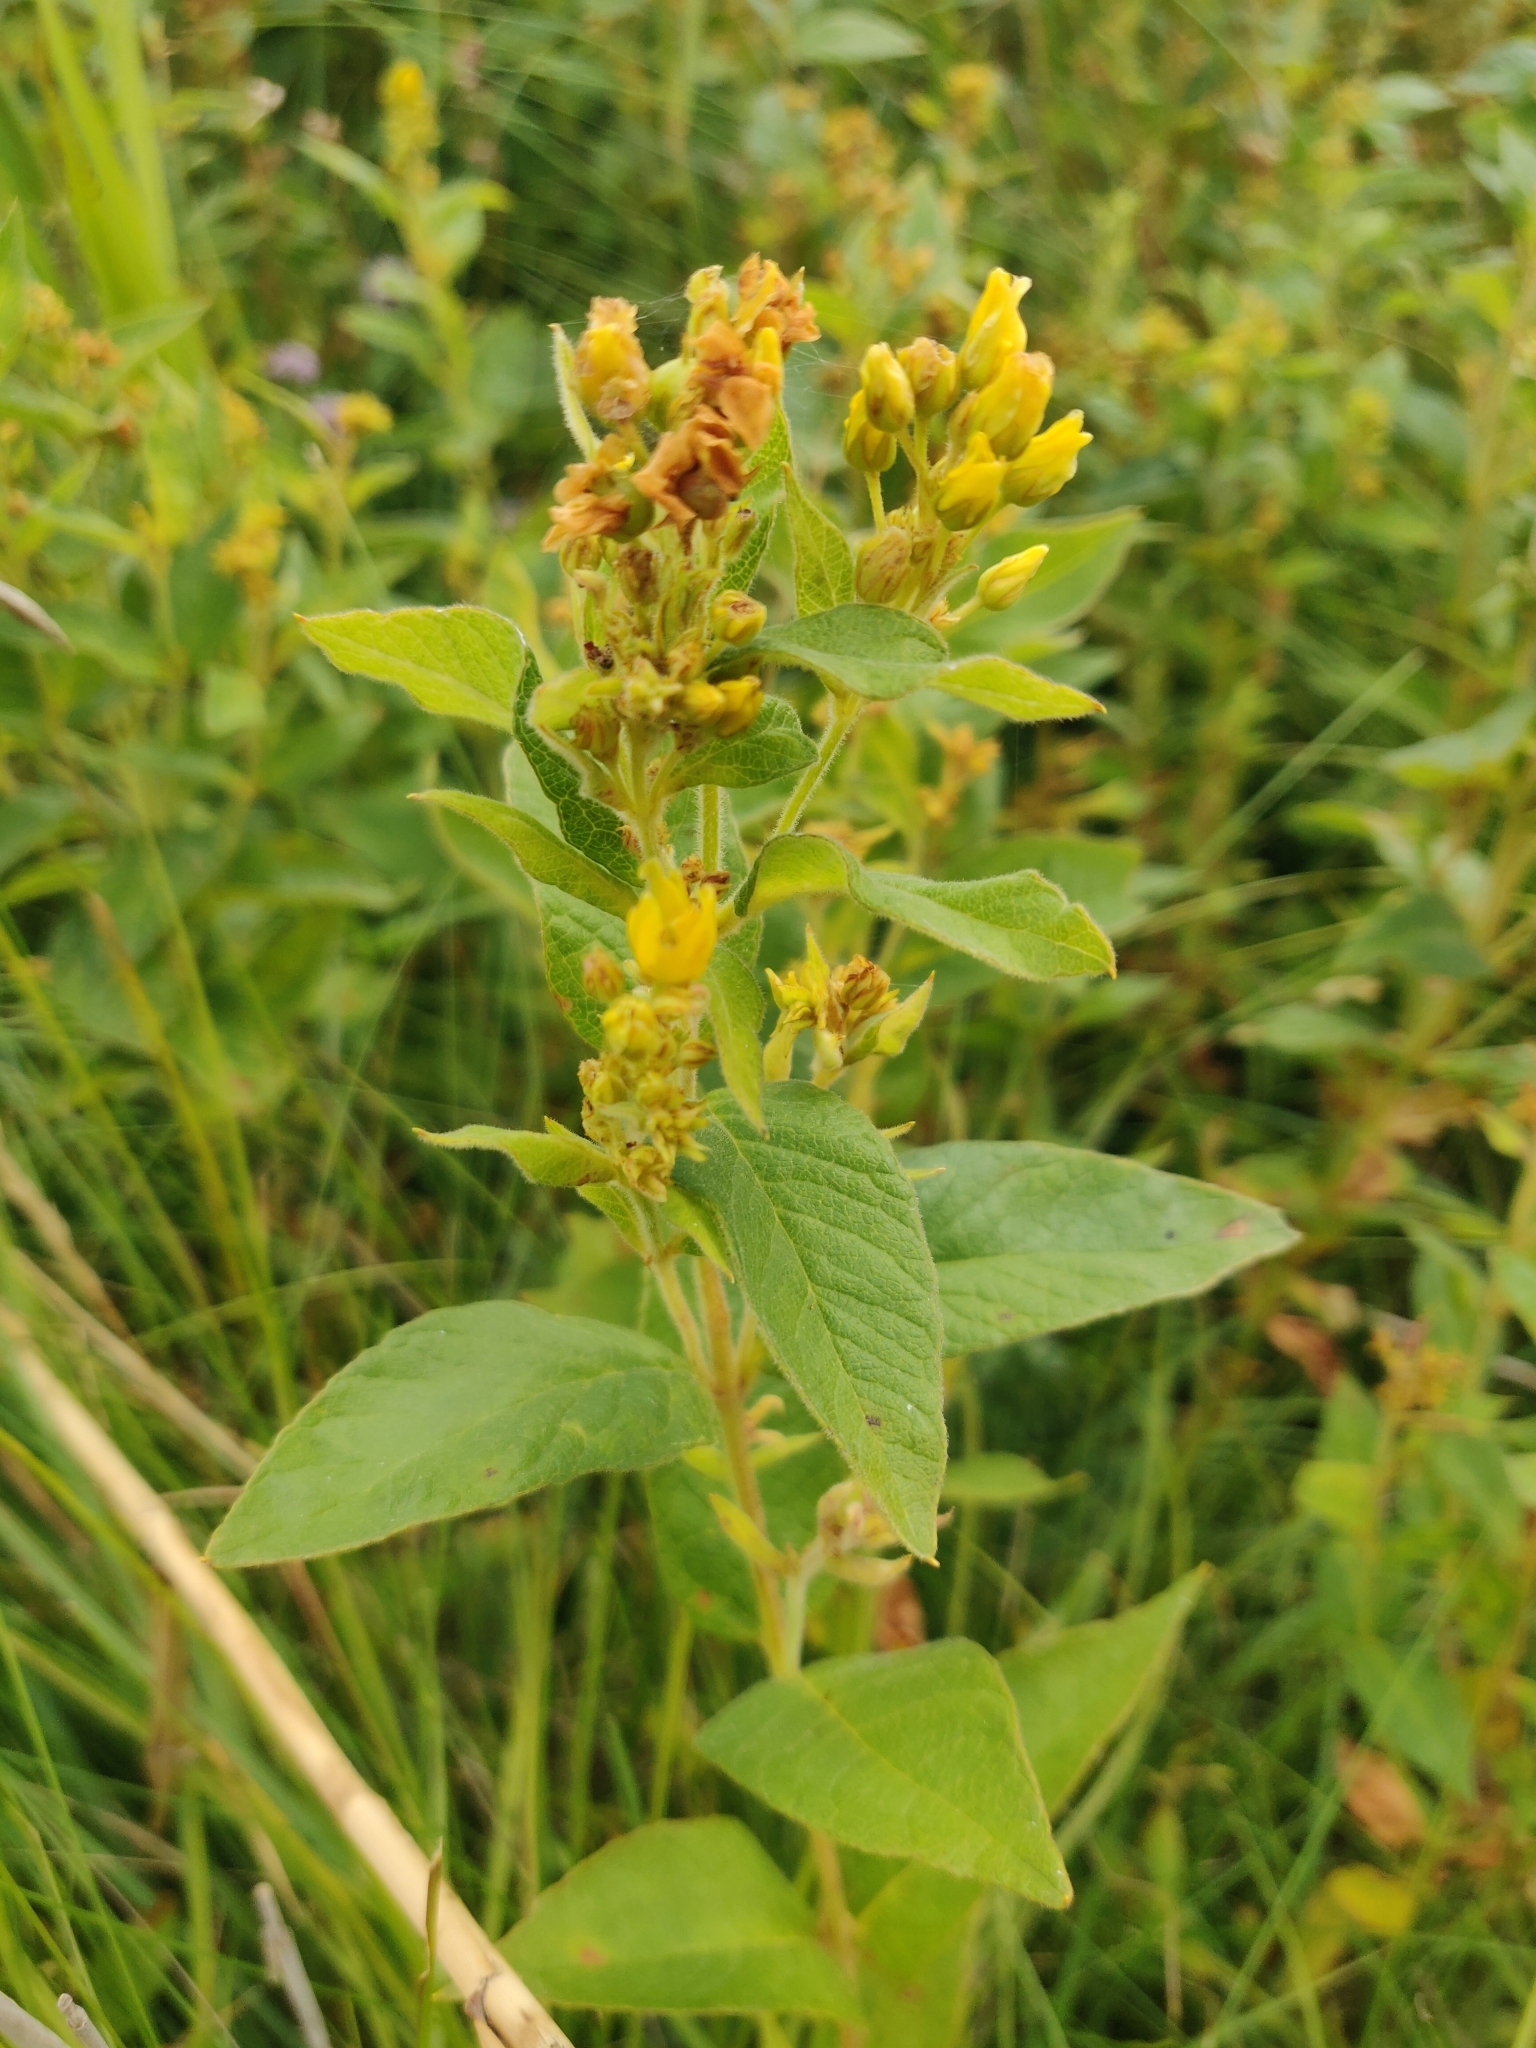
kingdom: Plantae
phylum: Tracheophyta
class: Magnoliopsida
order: Ericales
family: Primulaceae
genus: Lysimachia
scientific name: Lysimachia vulgaris
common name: Yellow loosestrife
